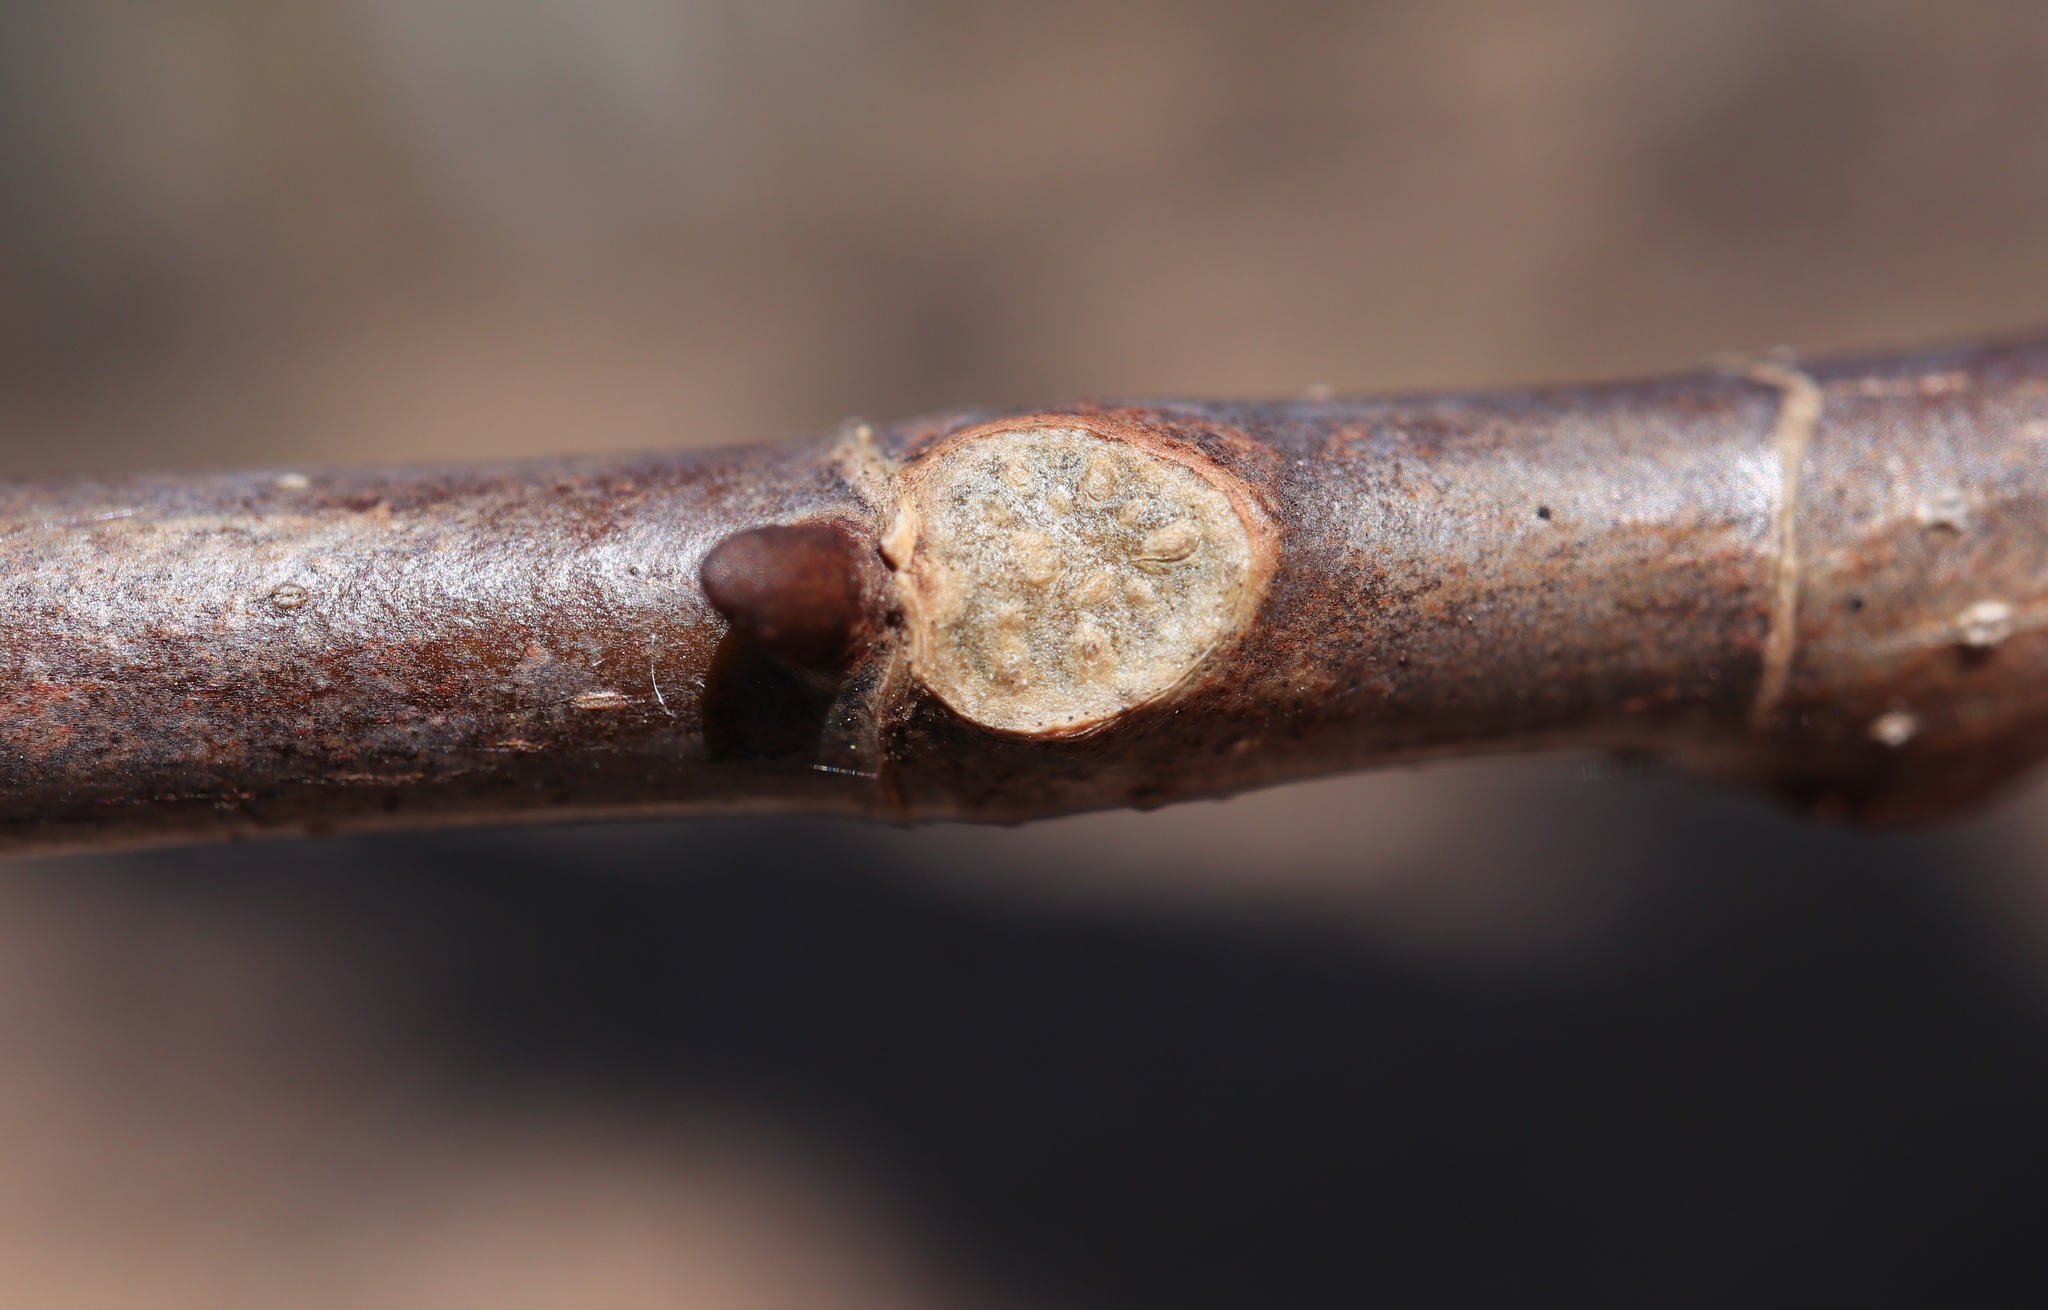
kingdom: Plantae
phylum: Tracheophyta
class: Magnoliopsida
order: Magnoliales
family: Magnoliaceae
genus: Liriodendron
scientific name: Liriodendron tulipifera
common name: Tulip tree
